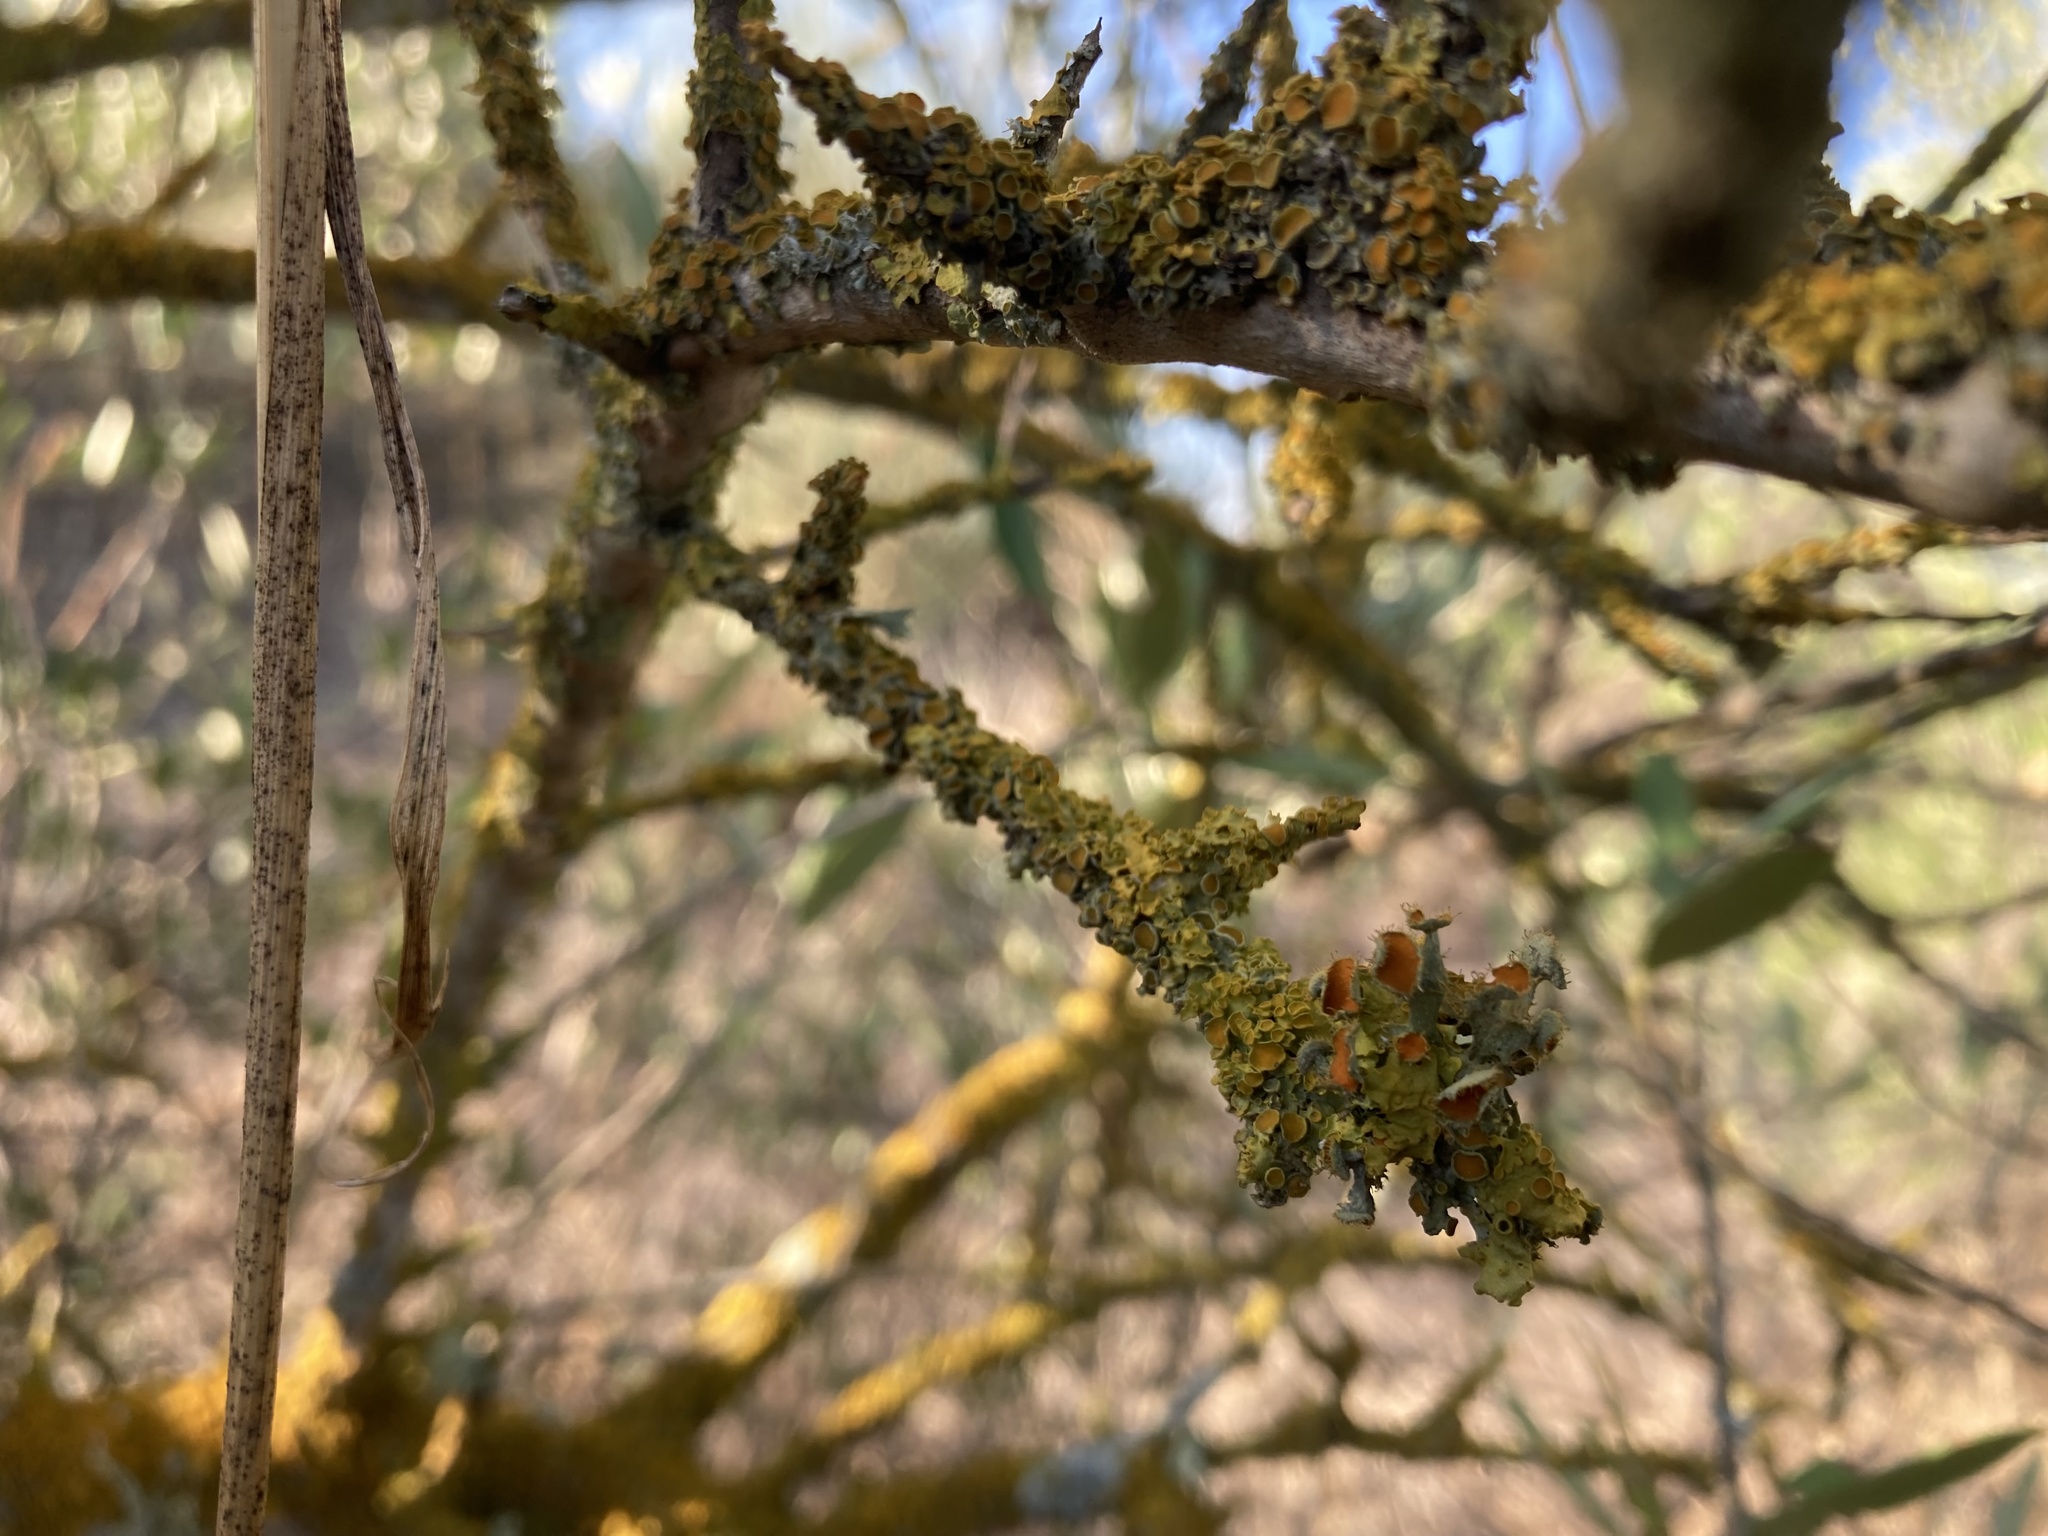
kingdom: Fungi
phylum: Ascomycota
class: Lecanoromycetes
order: Teloschistales
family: Teloschistaceae
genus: Niorma
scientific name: Niorma chrysophthalma
